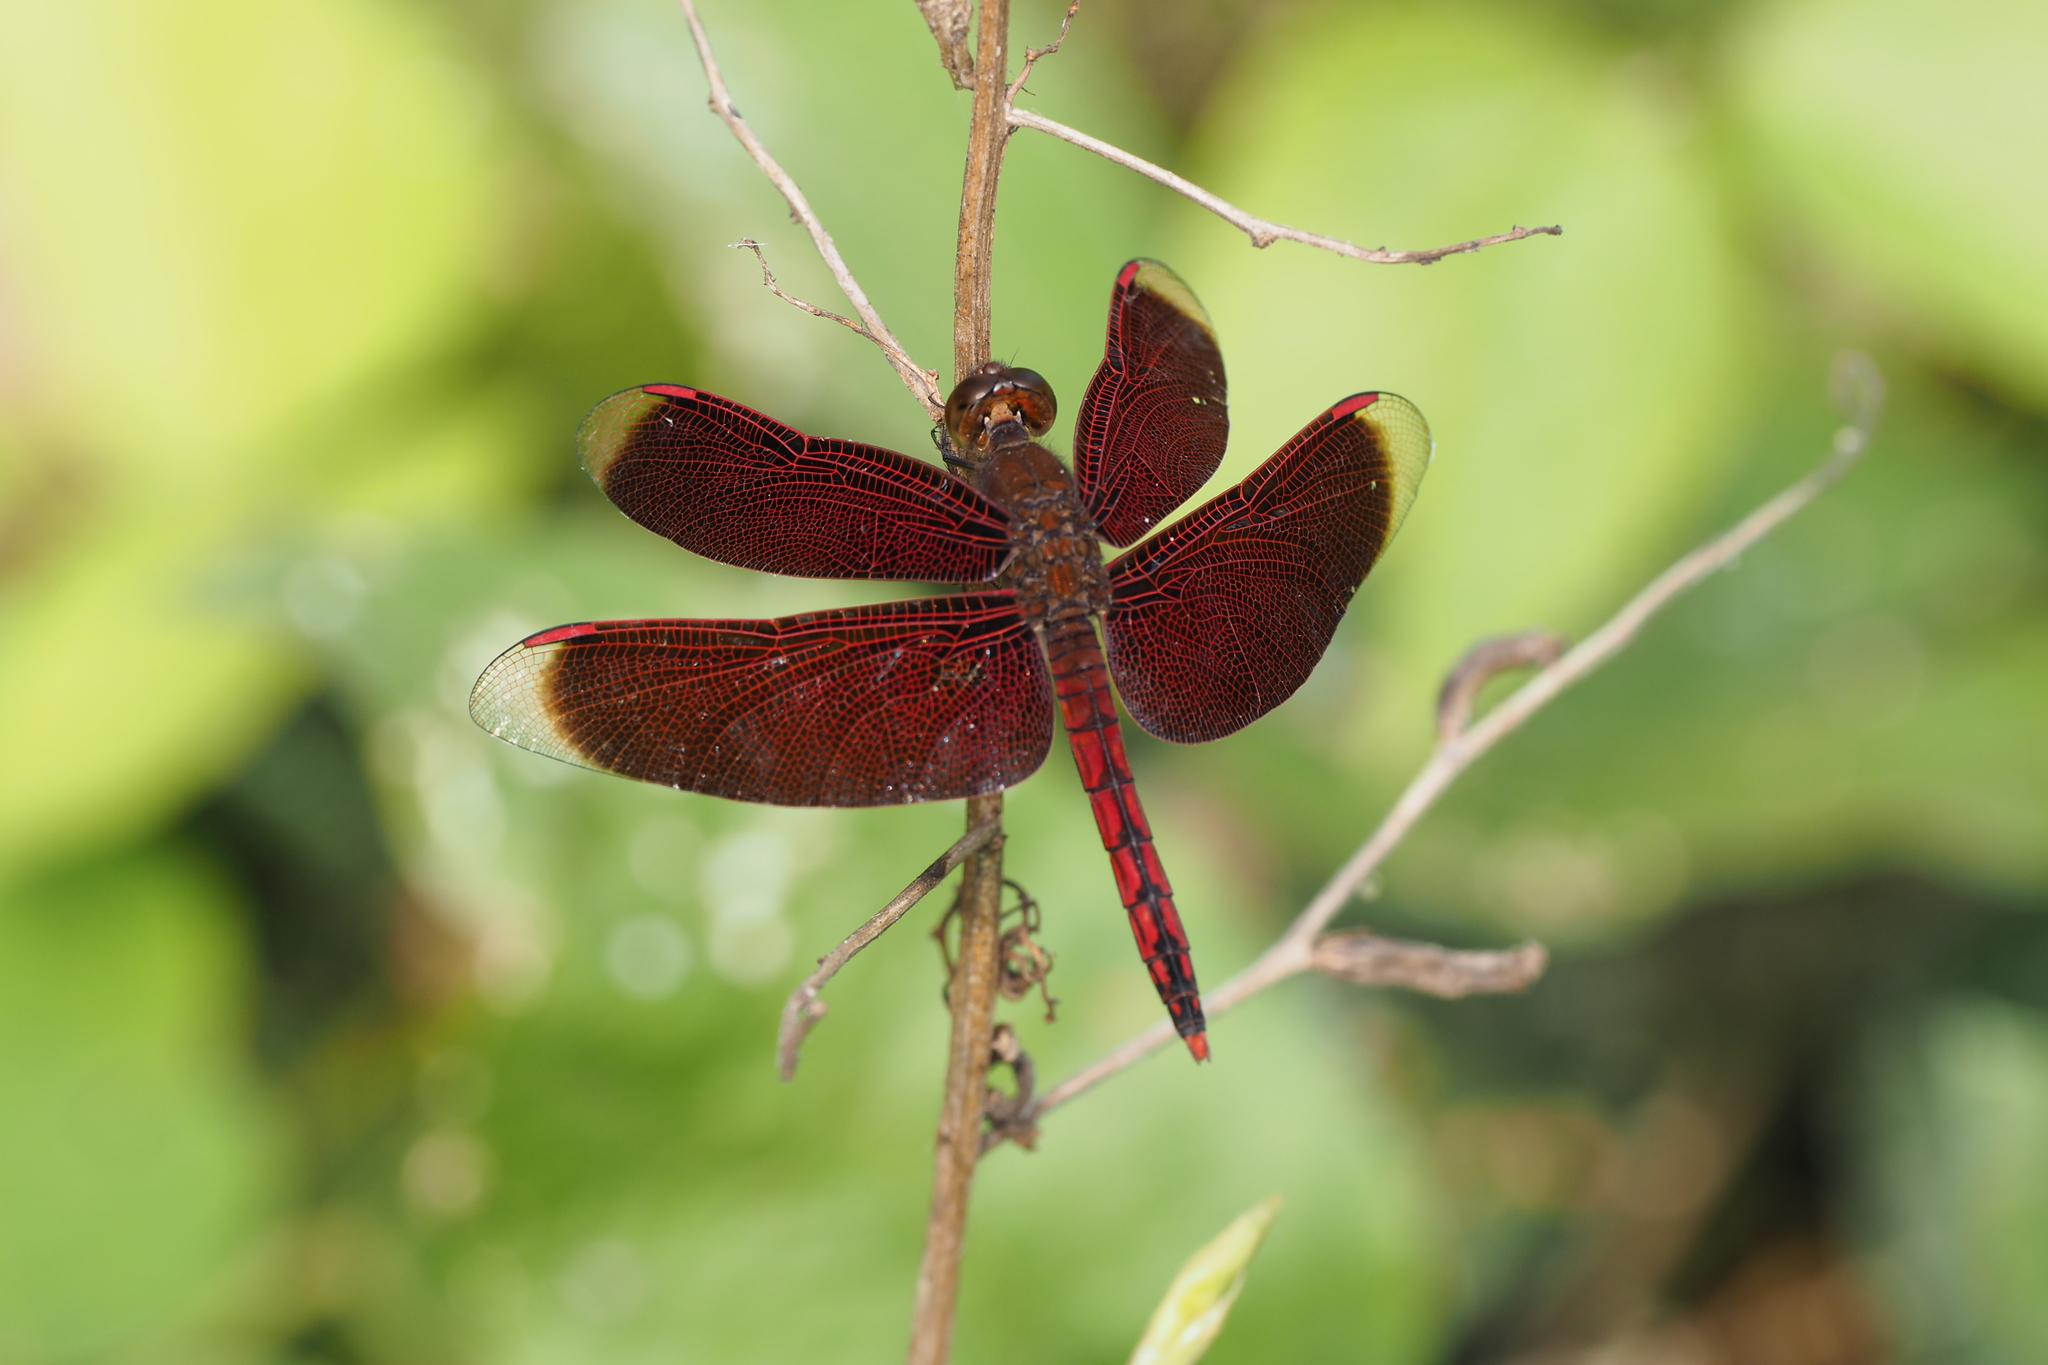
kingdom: Animalia
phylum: Arthropoda
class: Insecta
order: Odonata
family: Libellulidae
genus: Neurothemis
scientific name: Neurothemis taiwanensis
